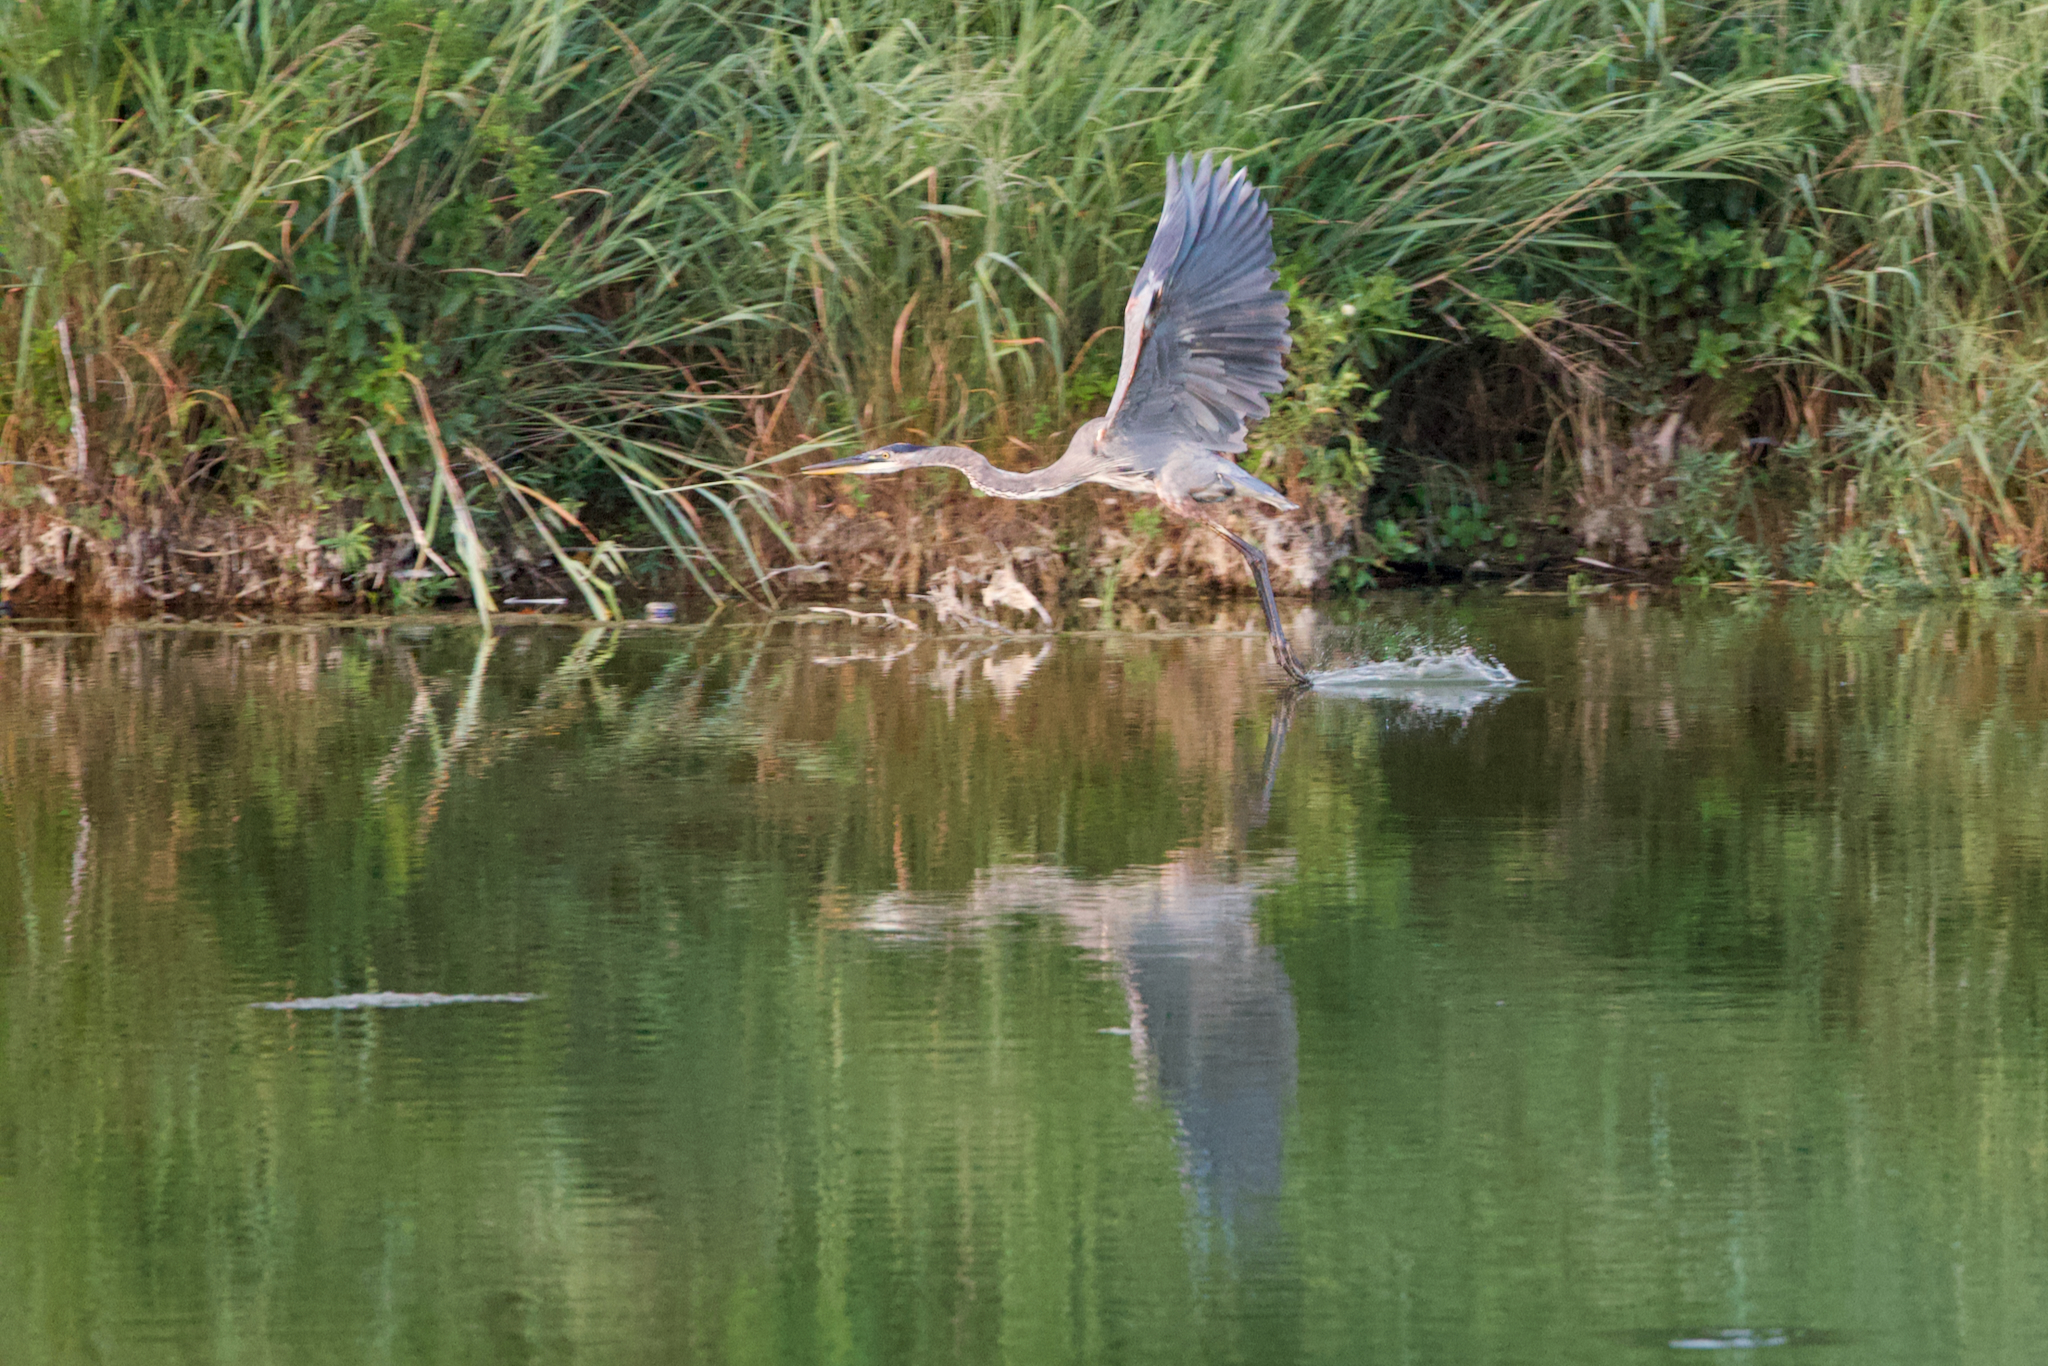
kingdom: Animalia
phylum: Chordata
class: Aves
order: Pelecaniformes
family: Ardeidae
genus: Ardea
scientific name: Ardea herodias
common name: Great blue heron
